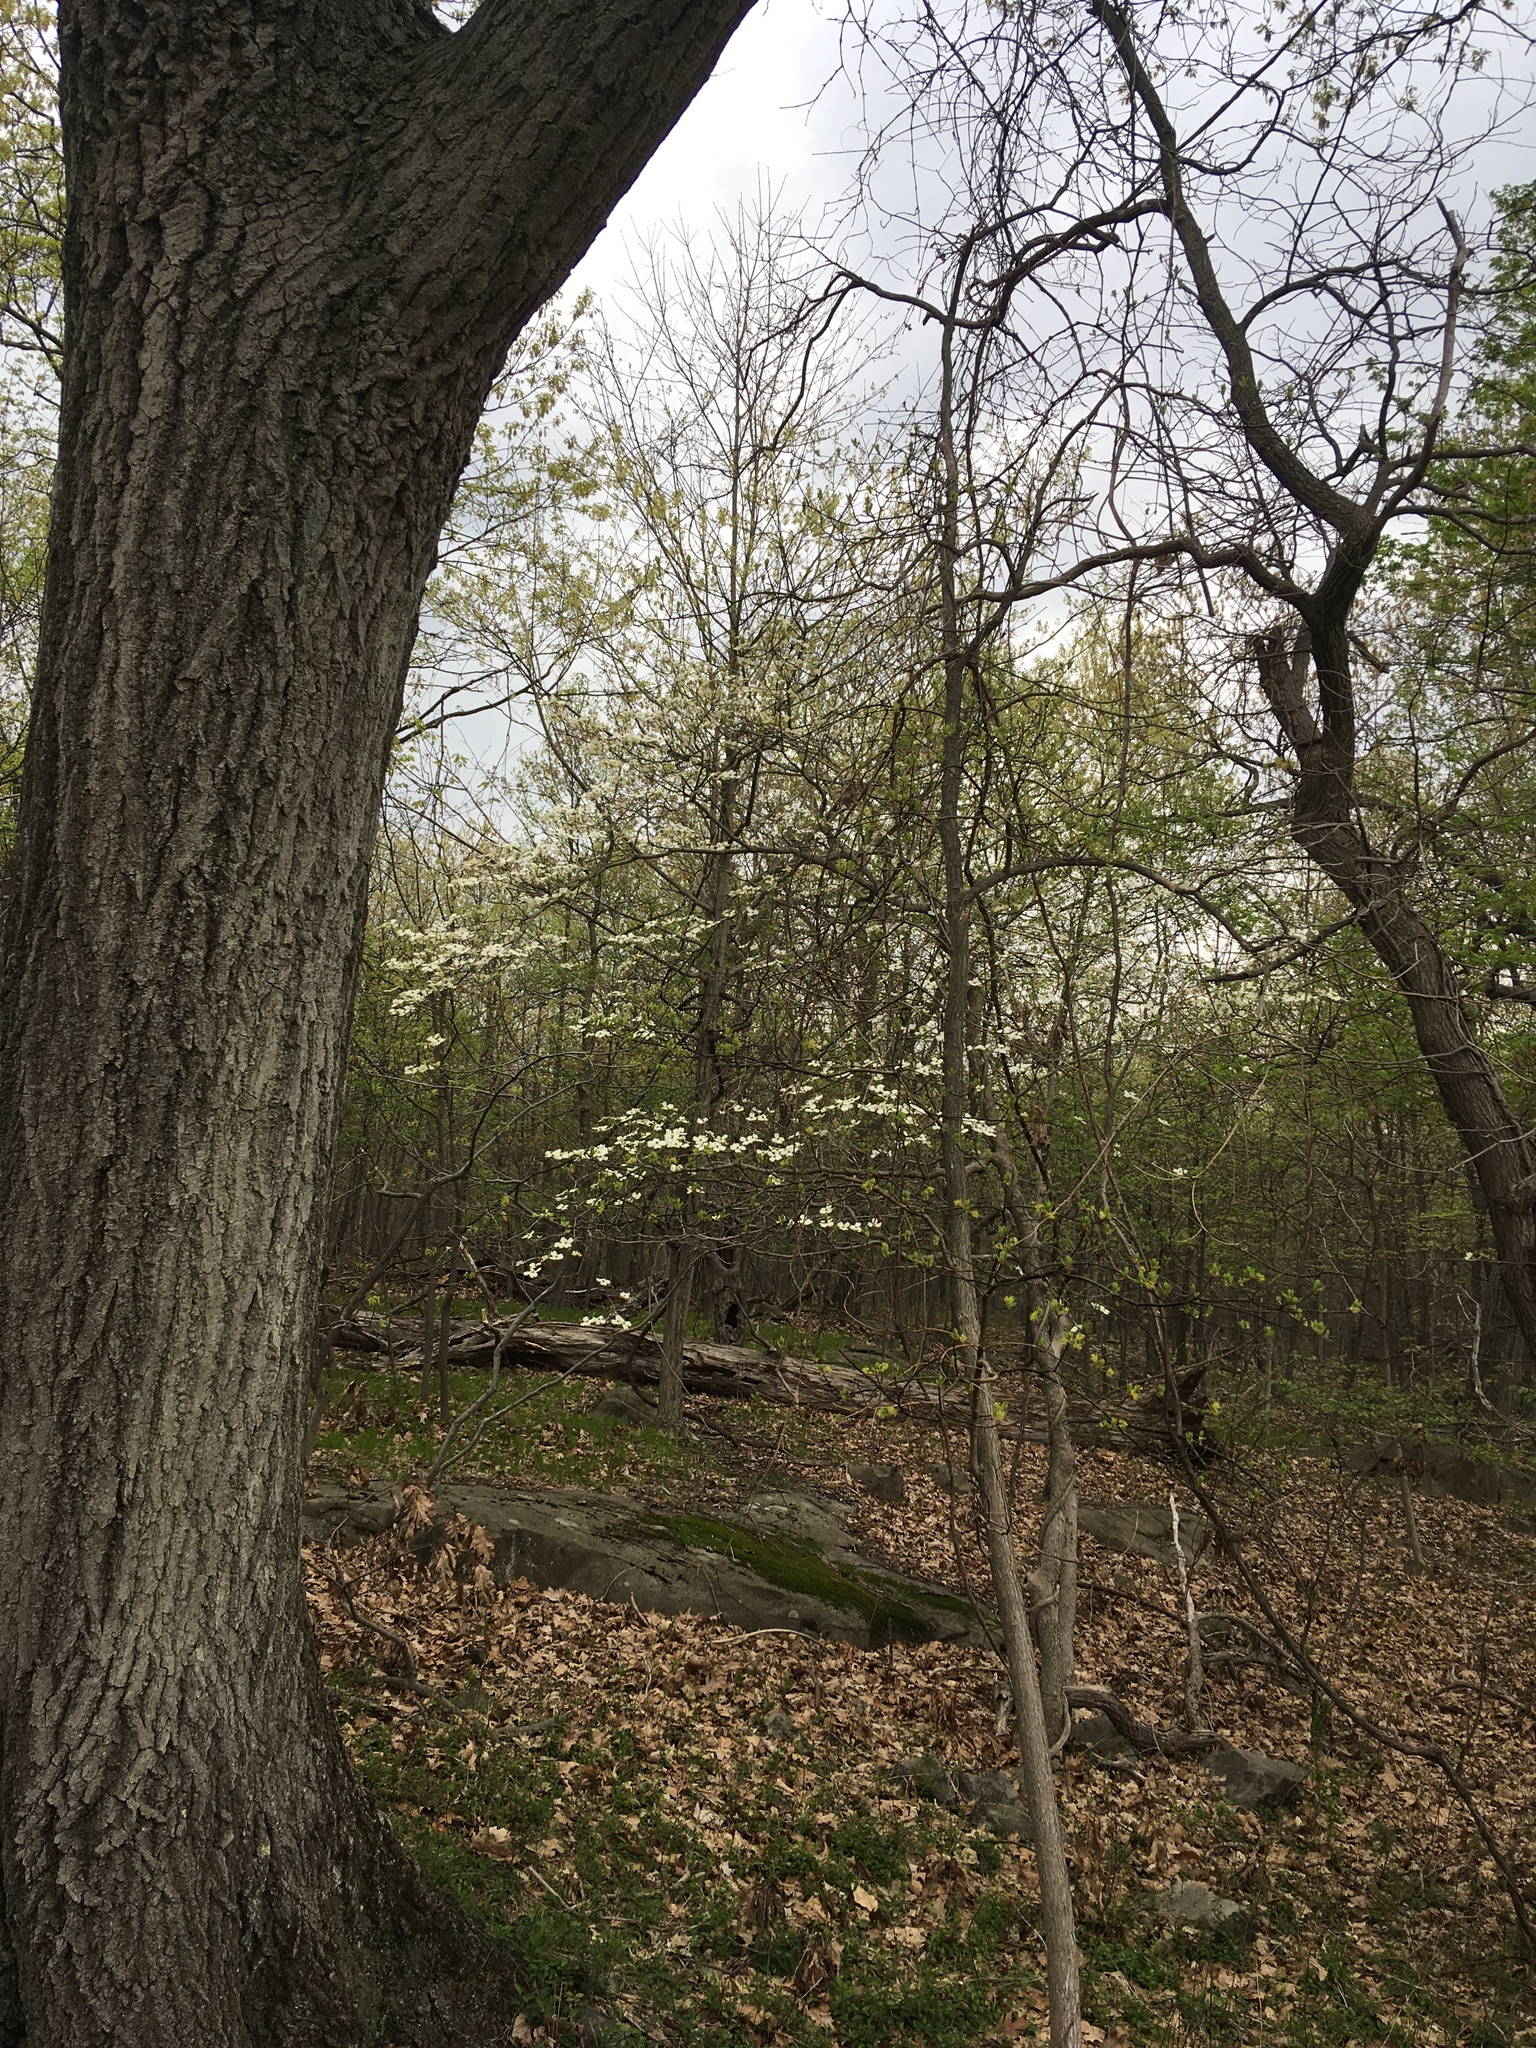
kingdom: Plantae
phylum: Tracheophyta
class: Magnoliopsida
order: Cornales
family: Cornaceae
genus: Cornus
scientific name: Cornus florida
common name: Flowering dogwood
